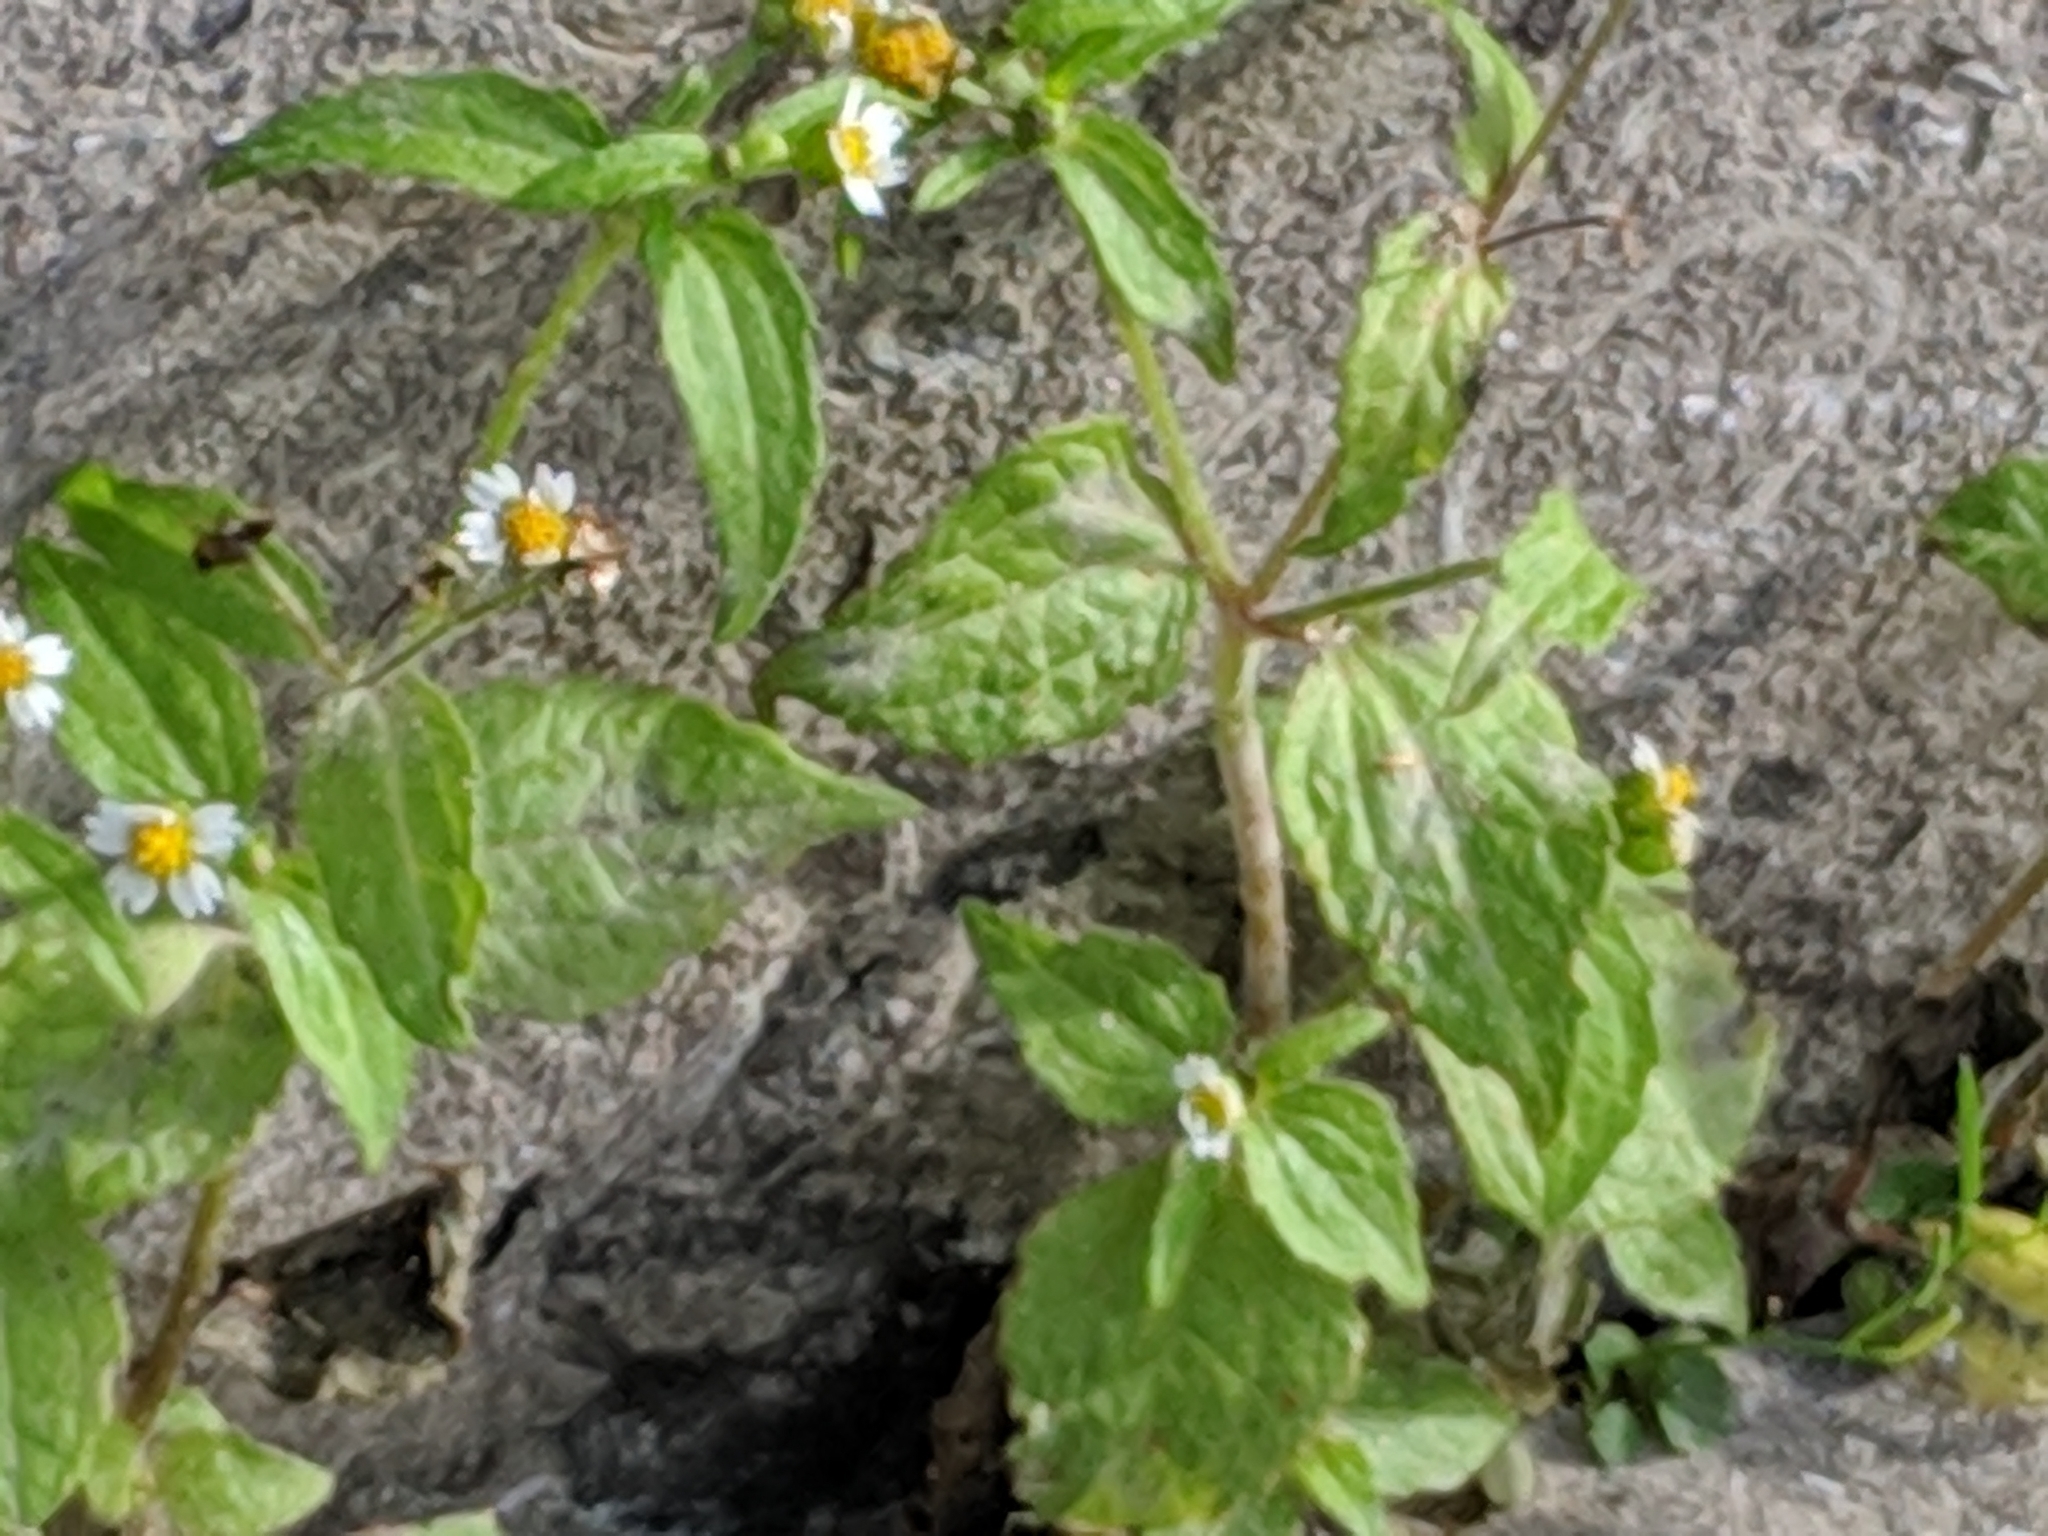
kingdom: Plantae
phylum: Tracheophyta
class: Magnoliopsida
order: Asterales
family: Asteraceae
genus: Galinsoga
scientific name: Galinsoga quadriradiata
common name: Shaggy soldier
